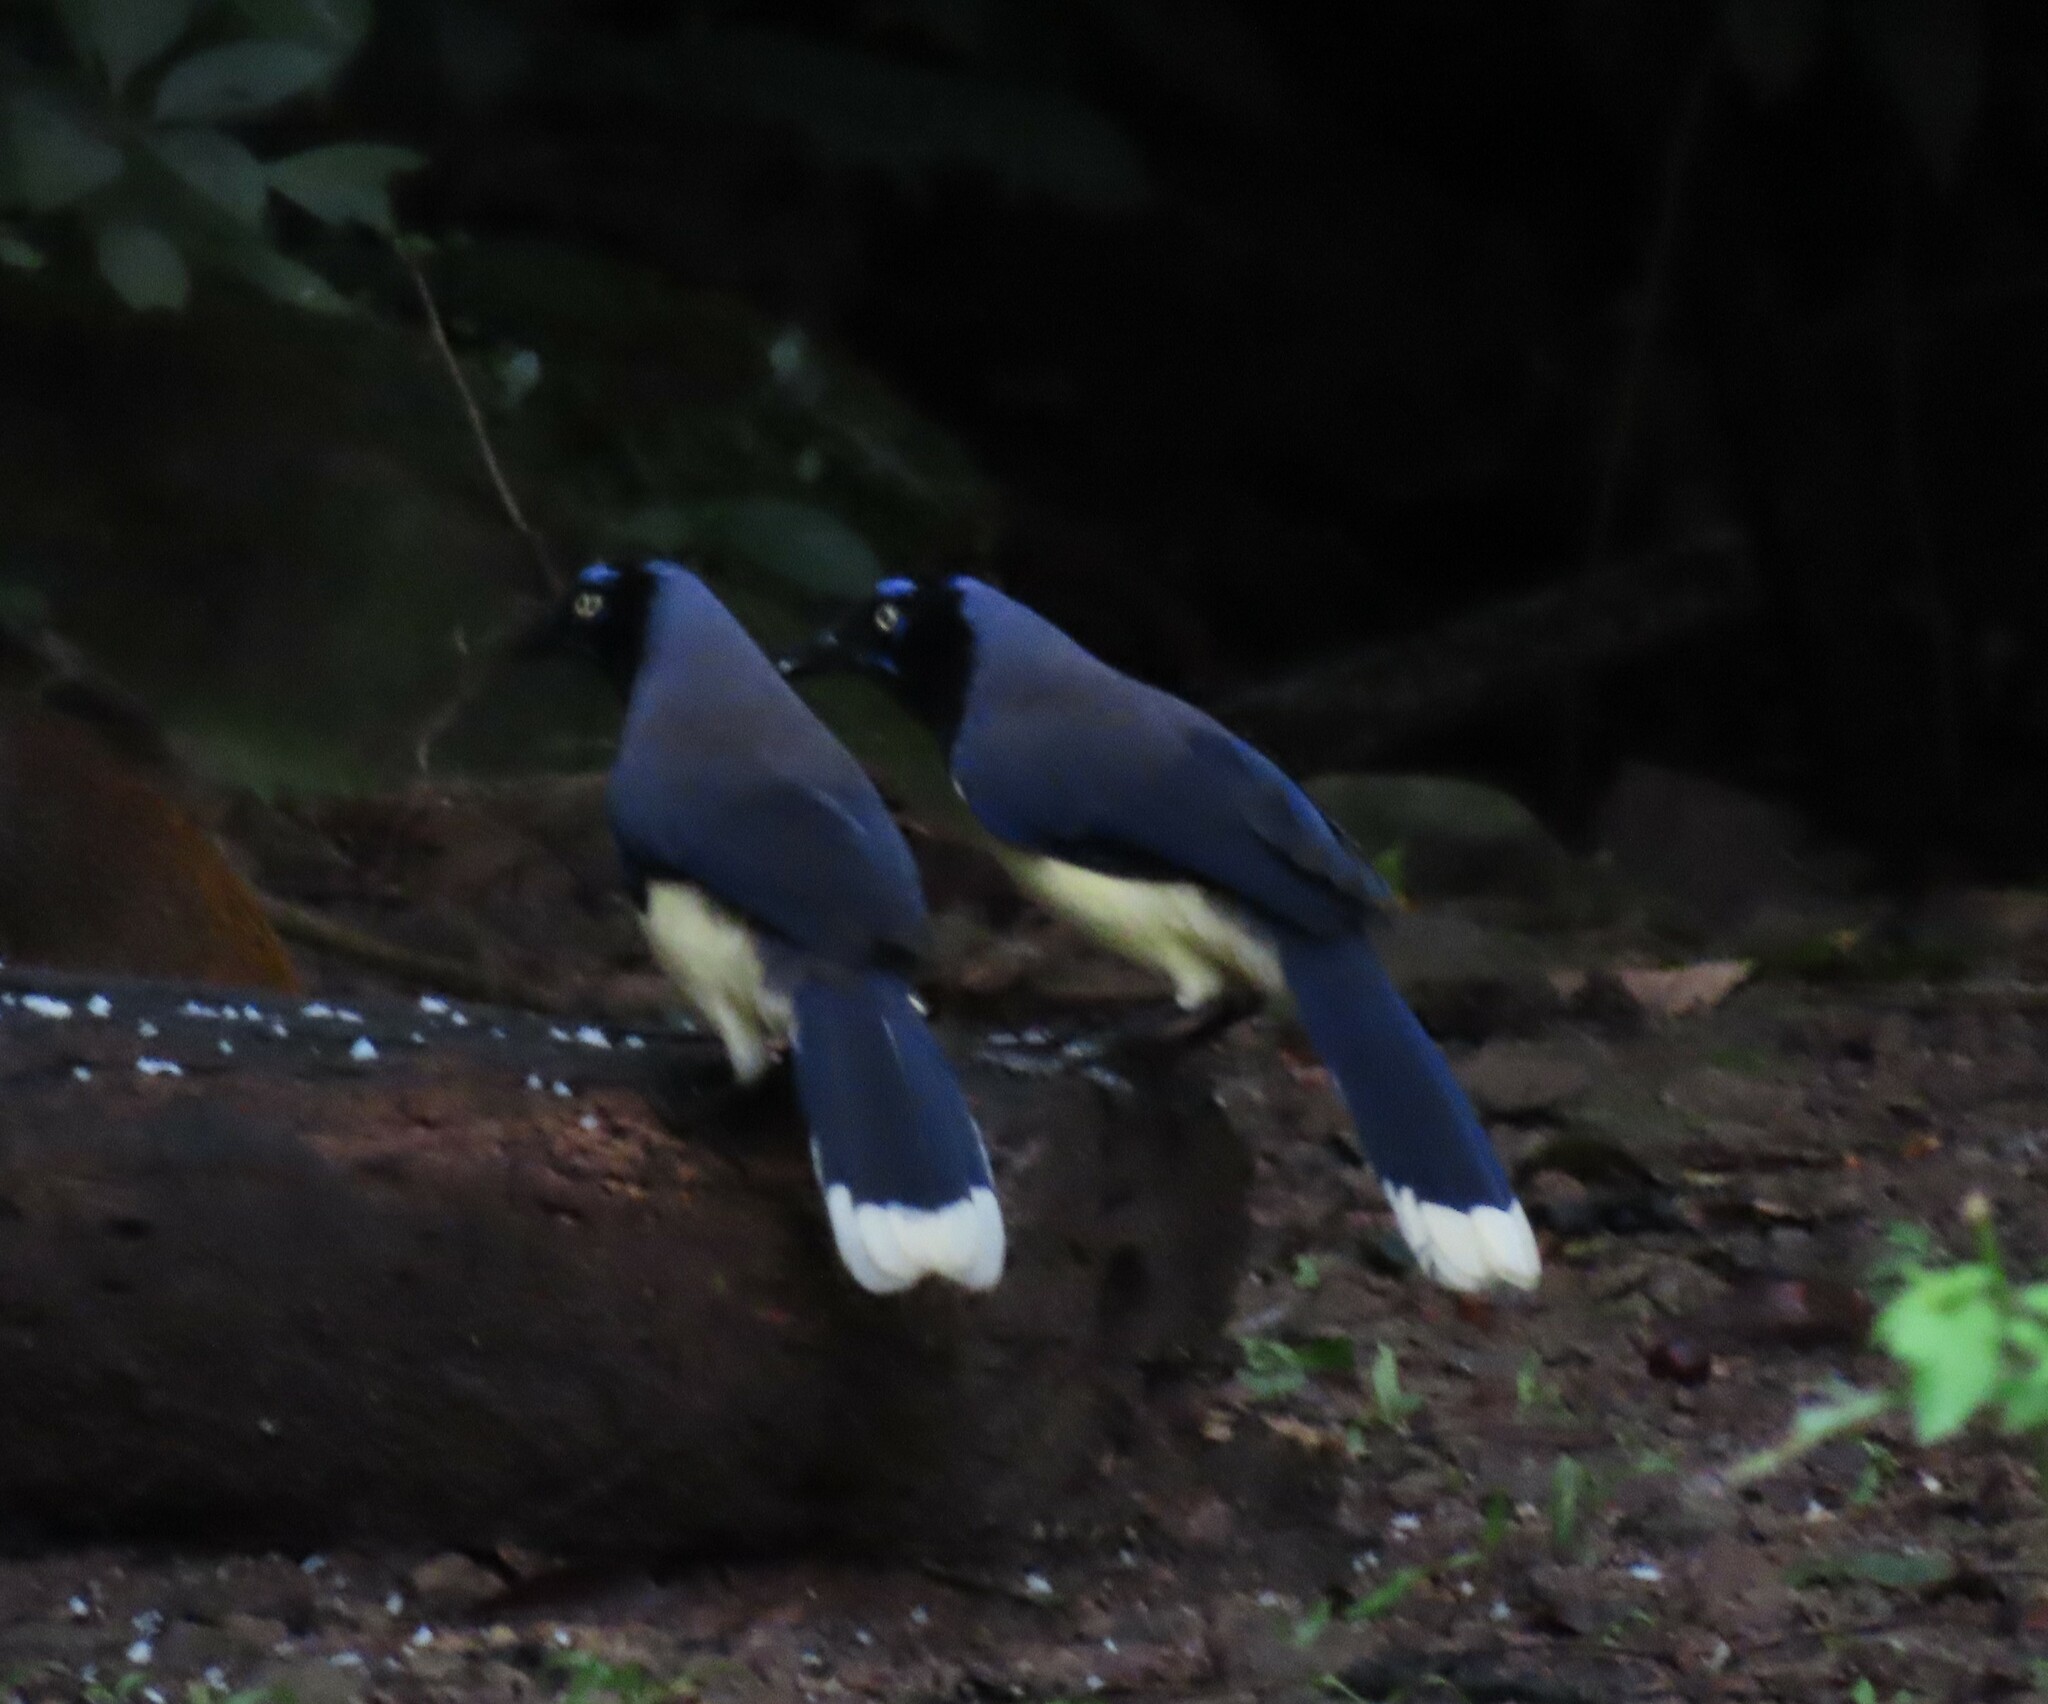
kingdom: Animalia
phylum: Chordata
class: Aves
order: Passeriformes
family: Corvidae
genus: Cyanocorax
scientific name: Cyanocorax affinis
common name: Black-chested jay
